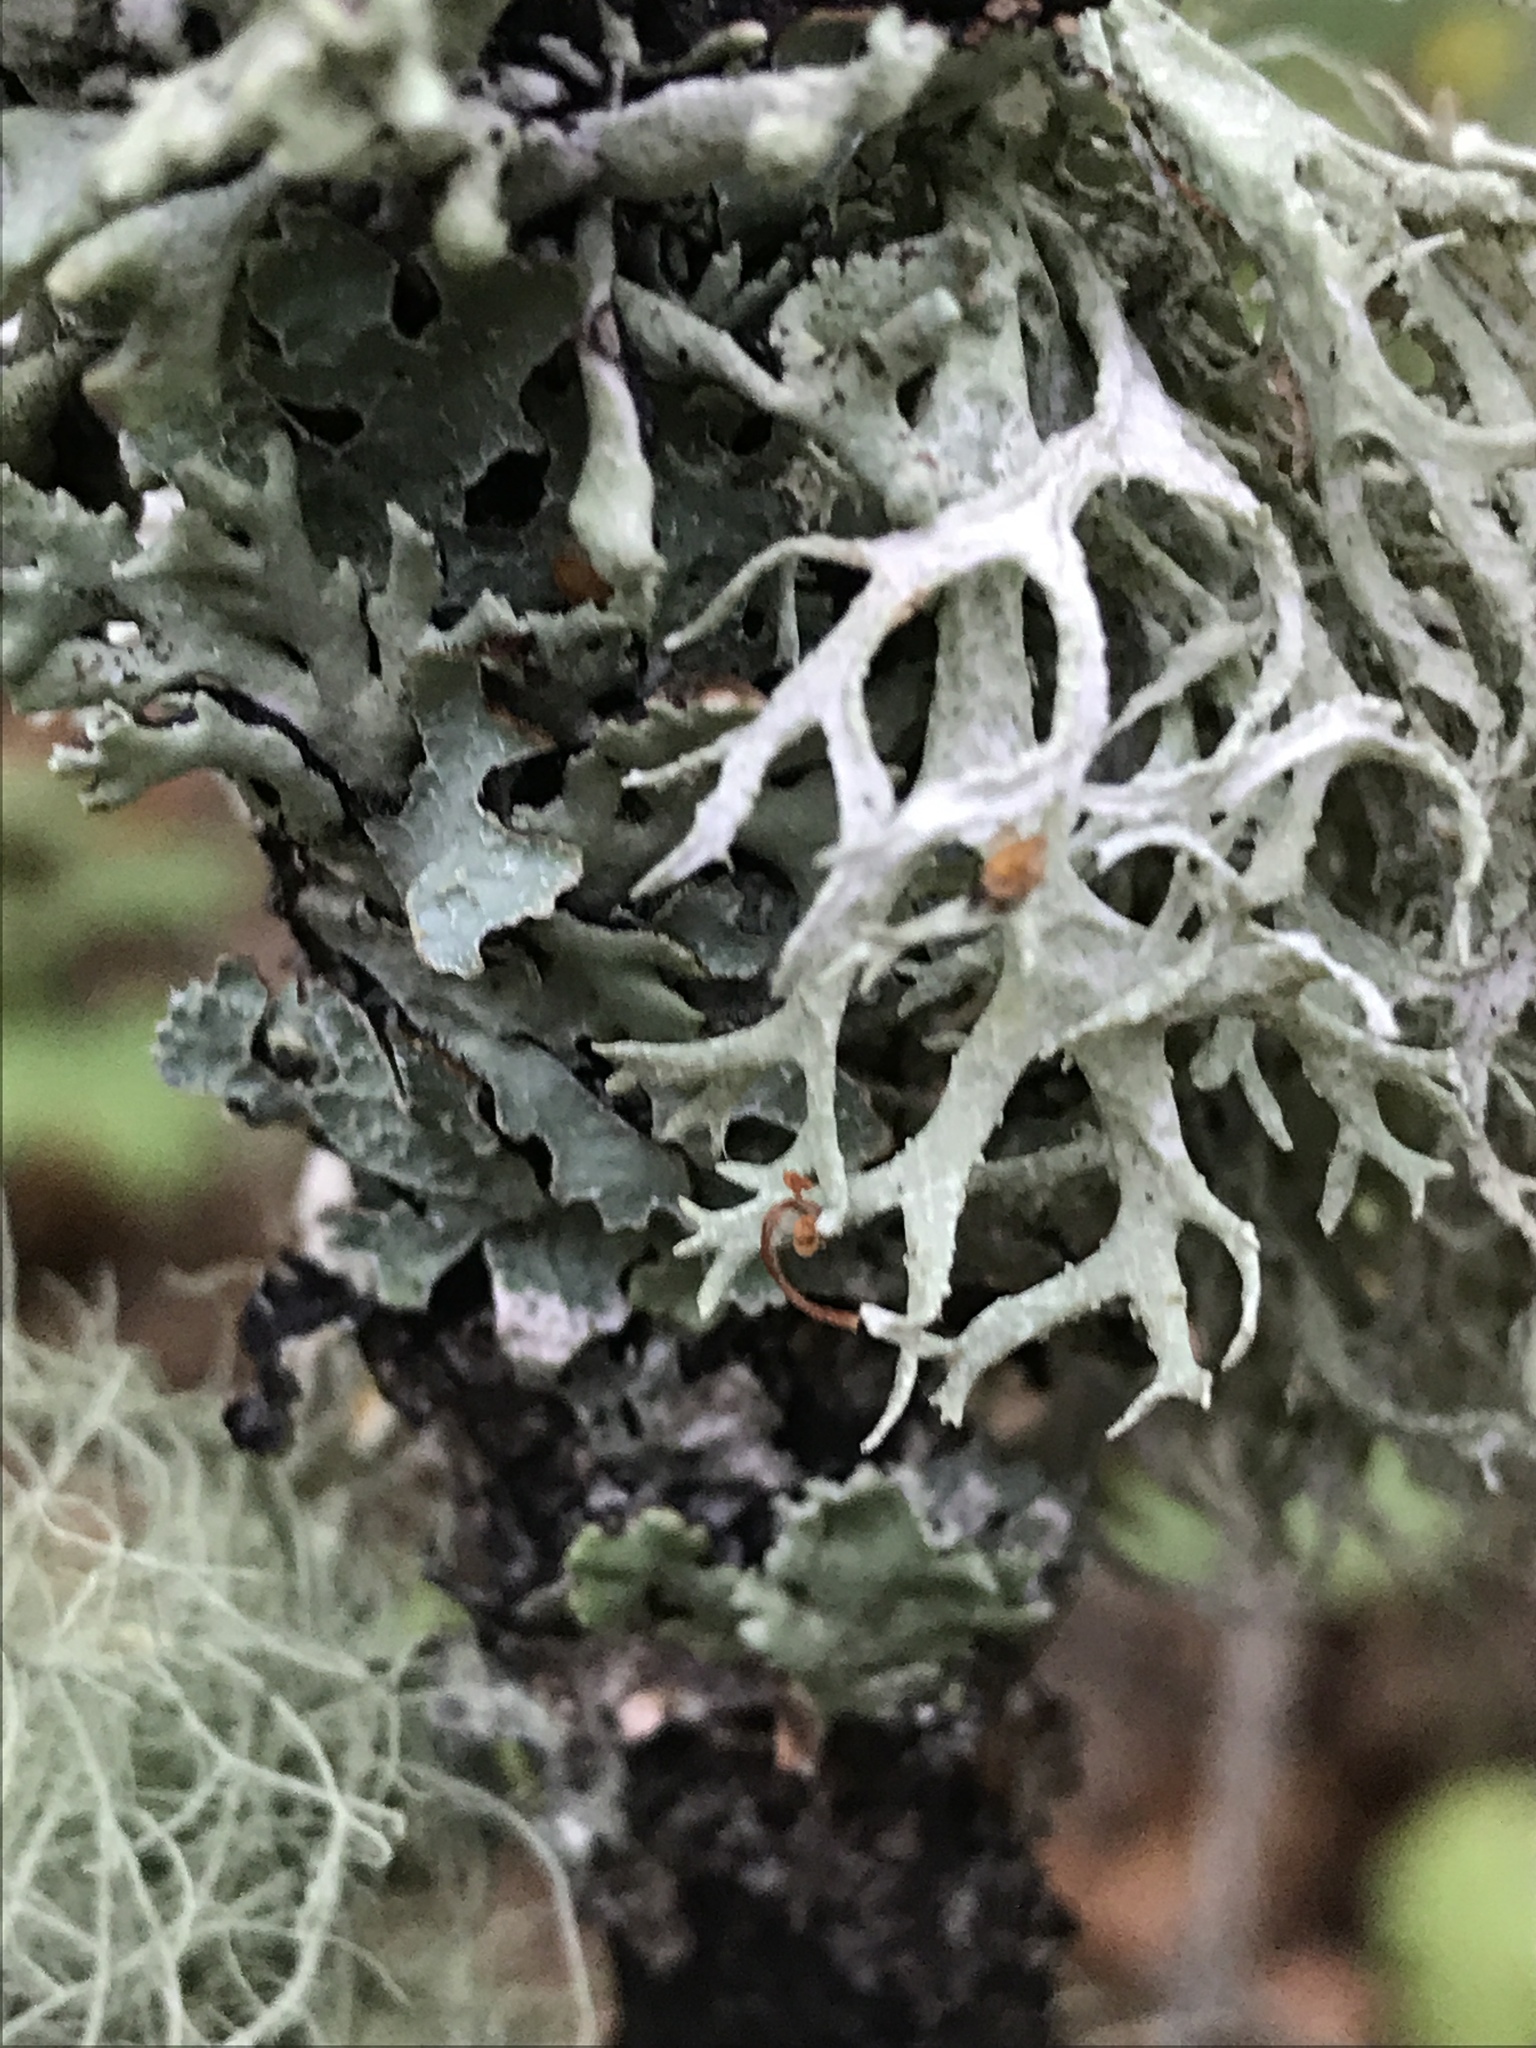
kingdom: Fungi
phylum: Ascomycota
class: Lecanoromycetes
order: Lecanorales
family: Parmeliaceae
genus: Evernia
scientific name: Evernia prunastri
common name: Oak moss
